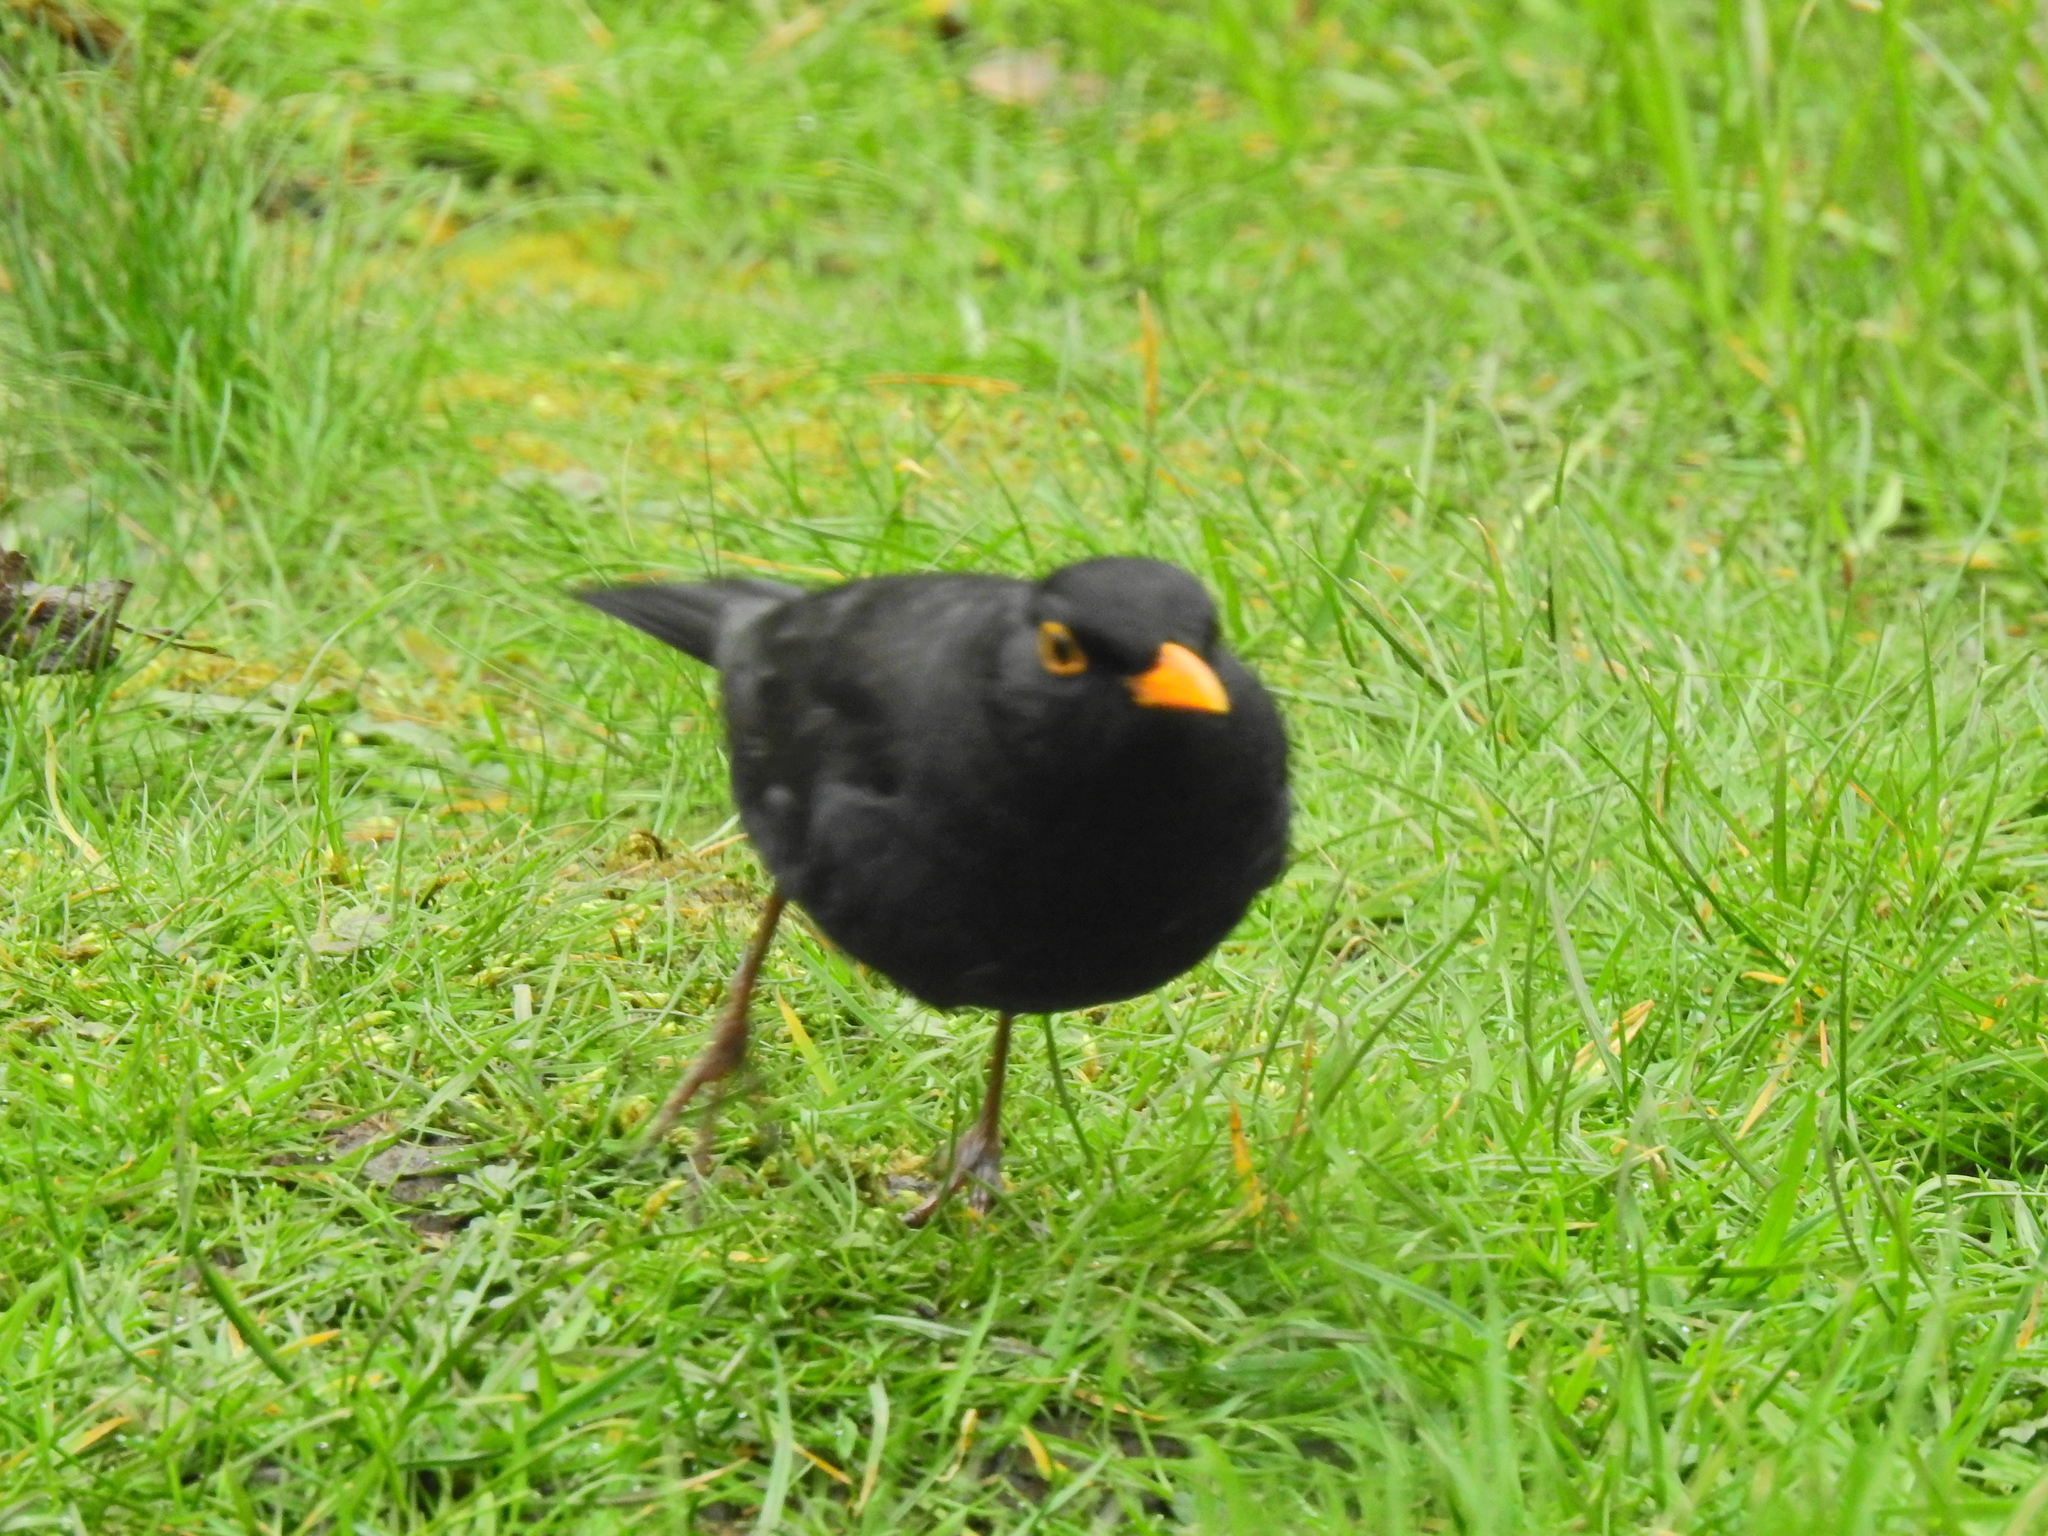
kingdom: Animalia
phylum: Chordata
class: Aves
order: Passeriformes
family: Turdidae
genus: Turdus
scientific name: Turdus merula
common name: Common blackbird
